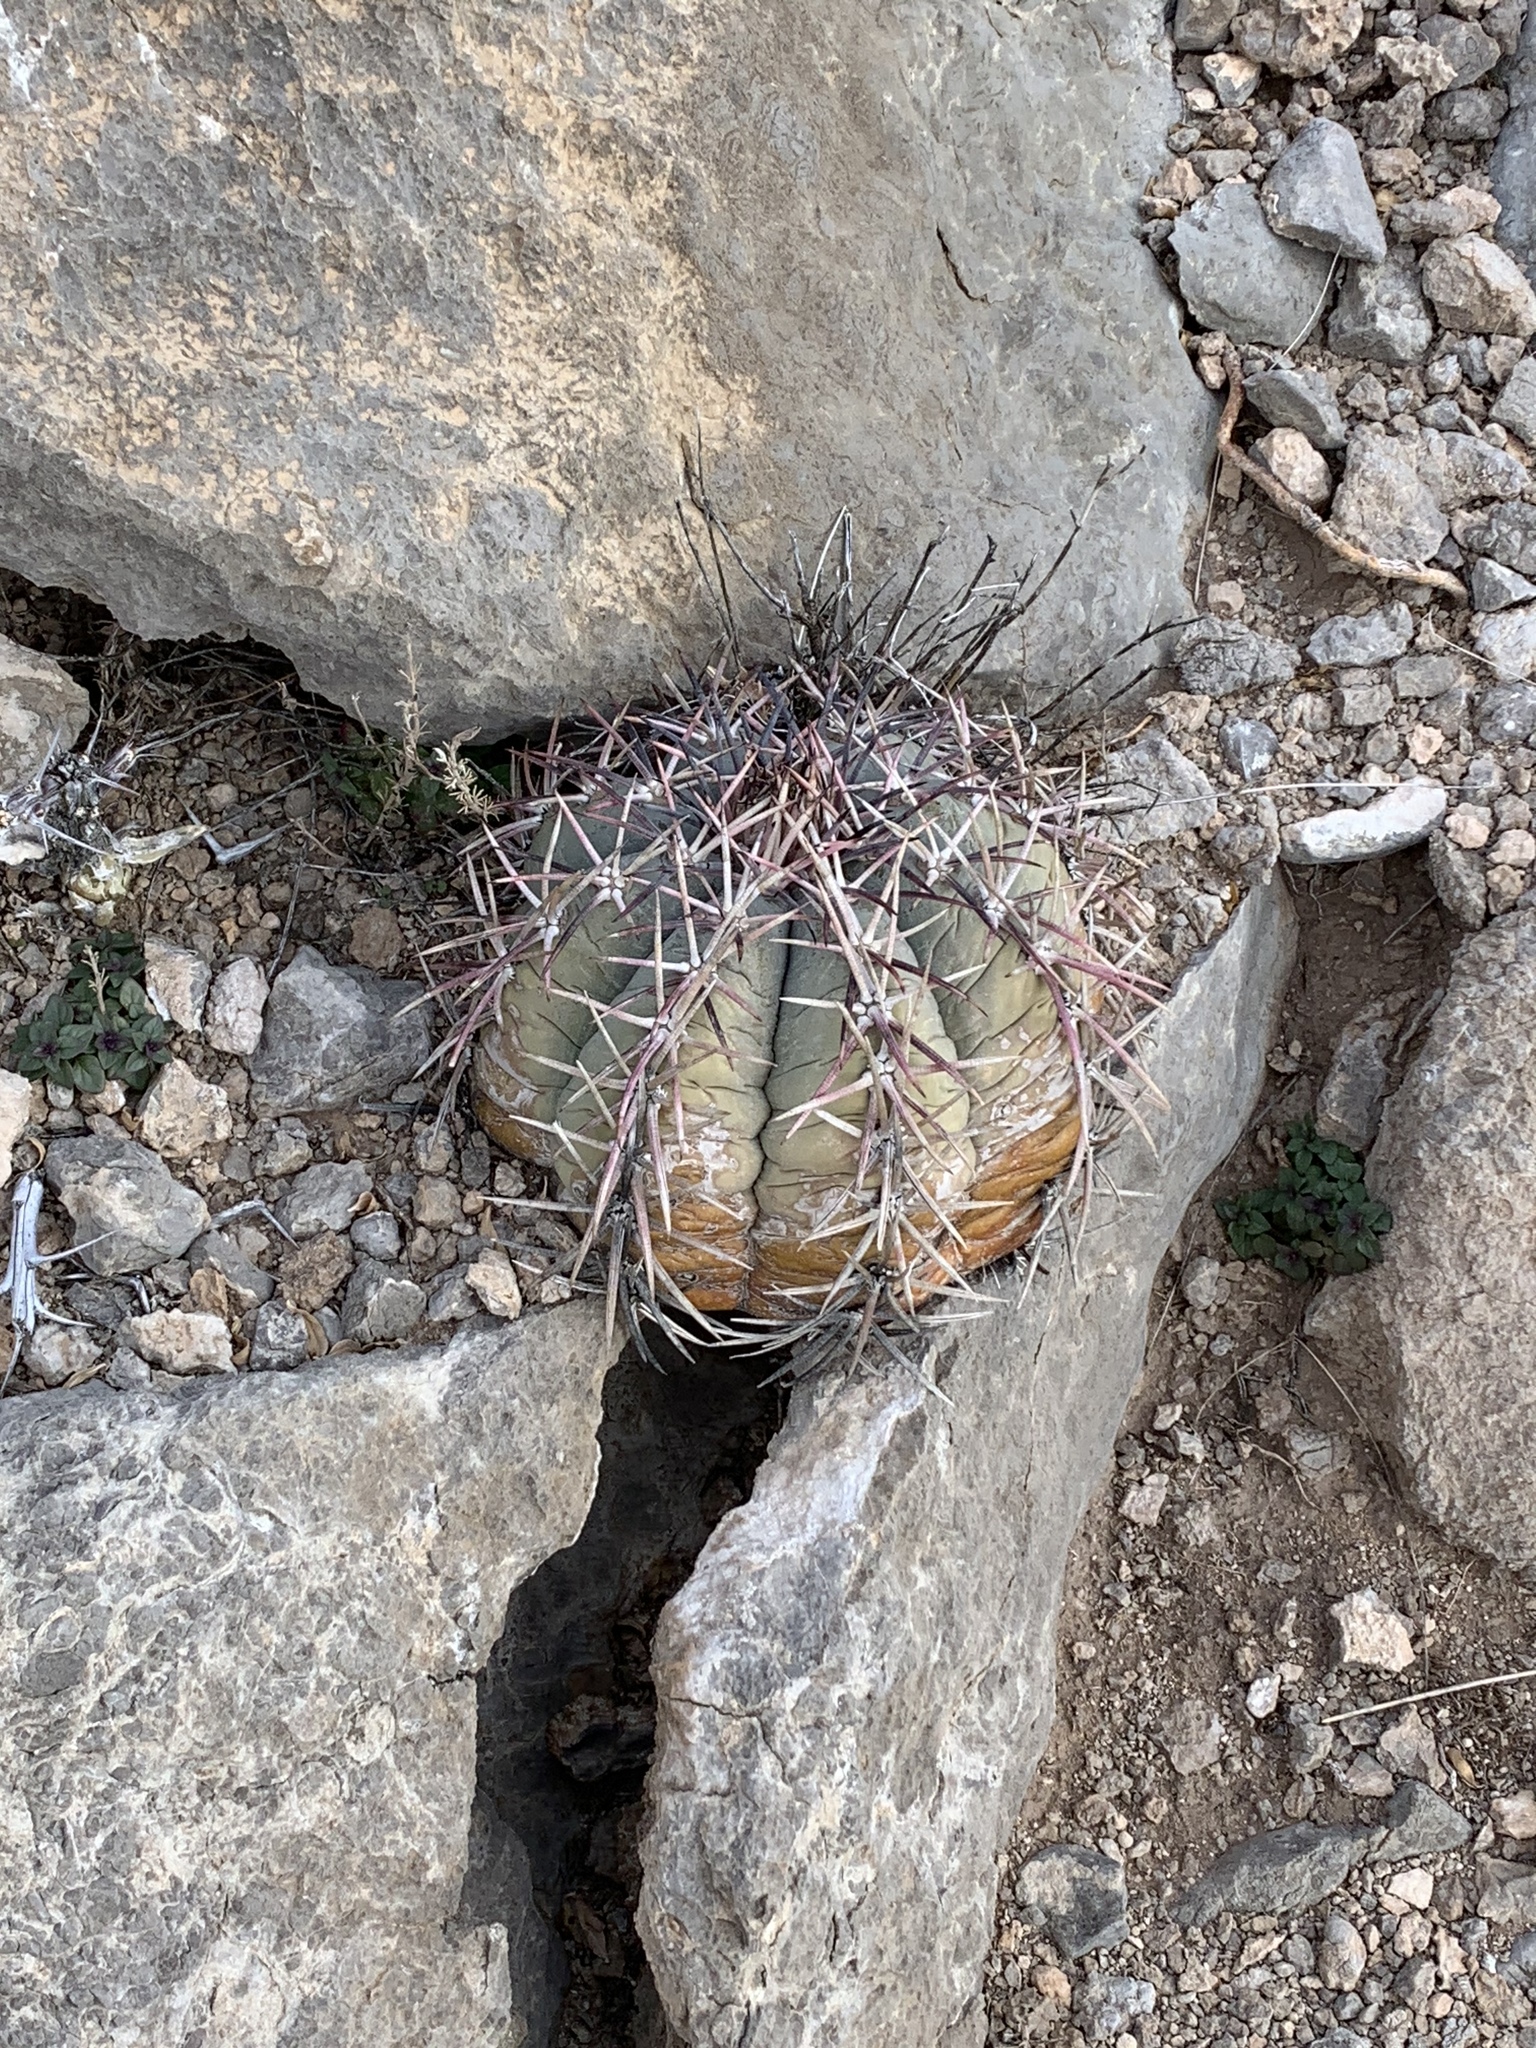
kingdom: Plantae
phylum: Tracheophyta
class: Magnoliopsida
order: Caryophyllales
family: Cactaceae
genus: Echinocactus
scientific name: Echinocactus horizonthalonius
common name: Devilshead
